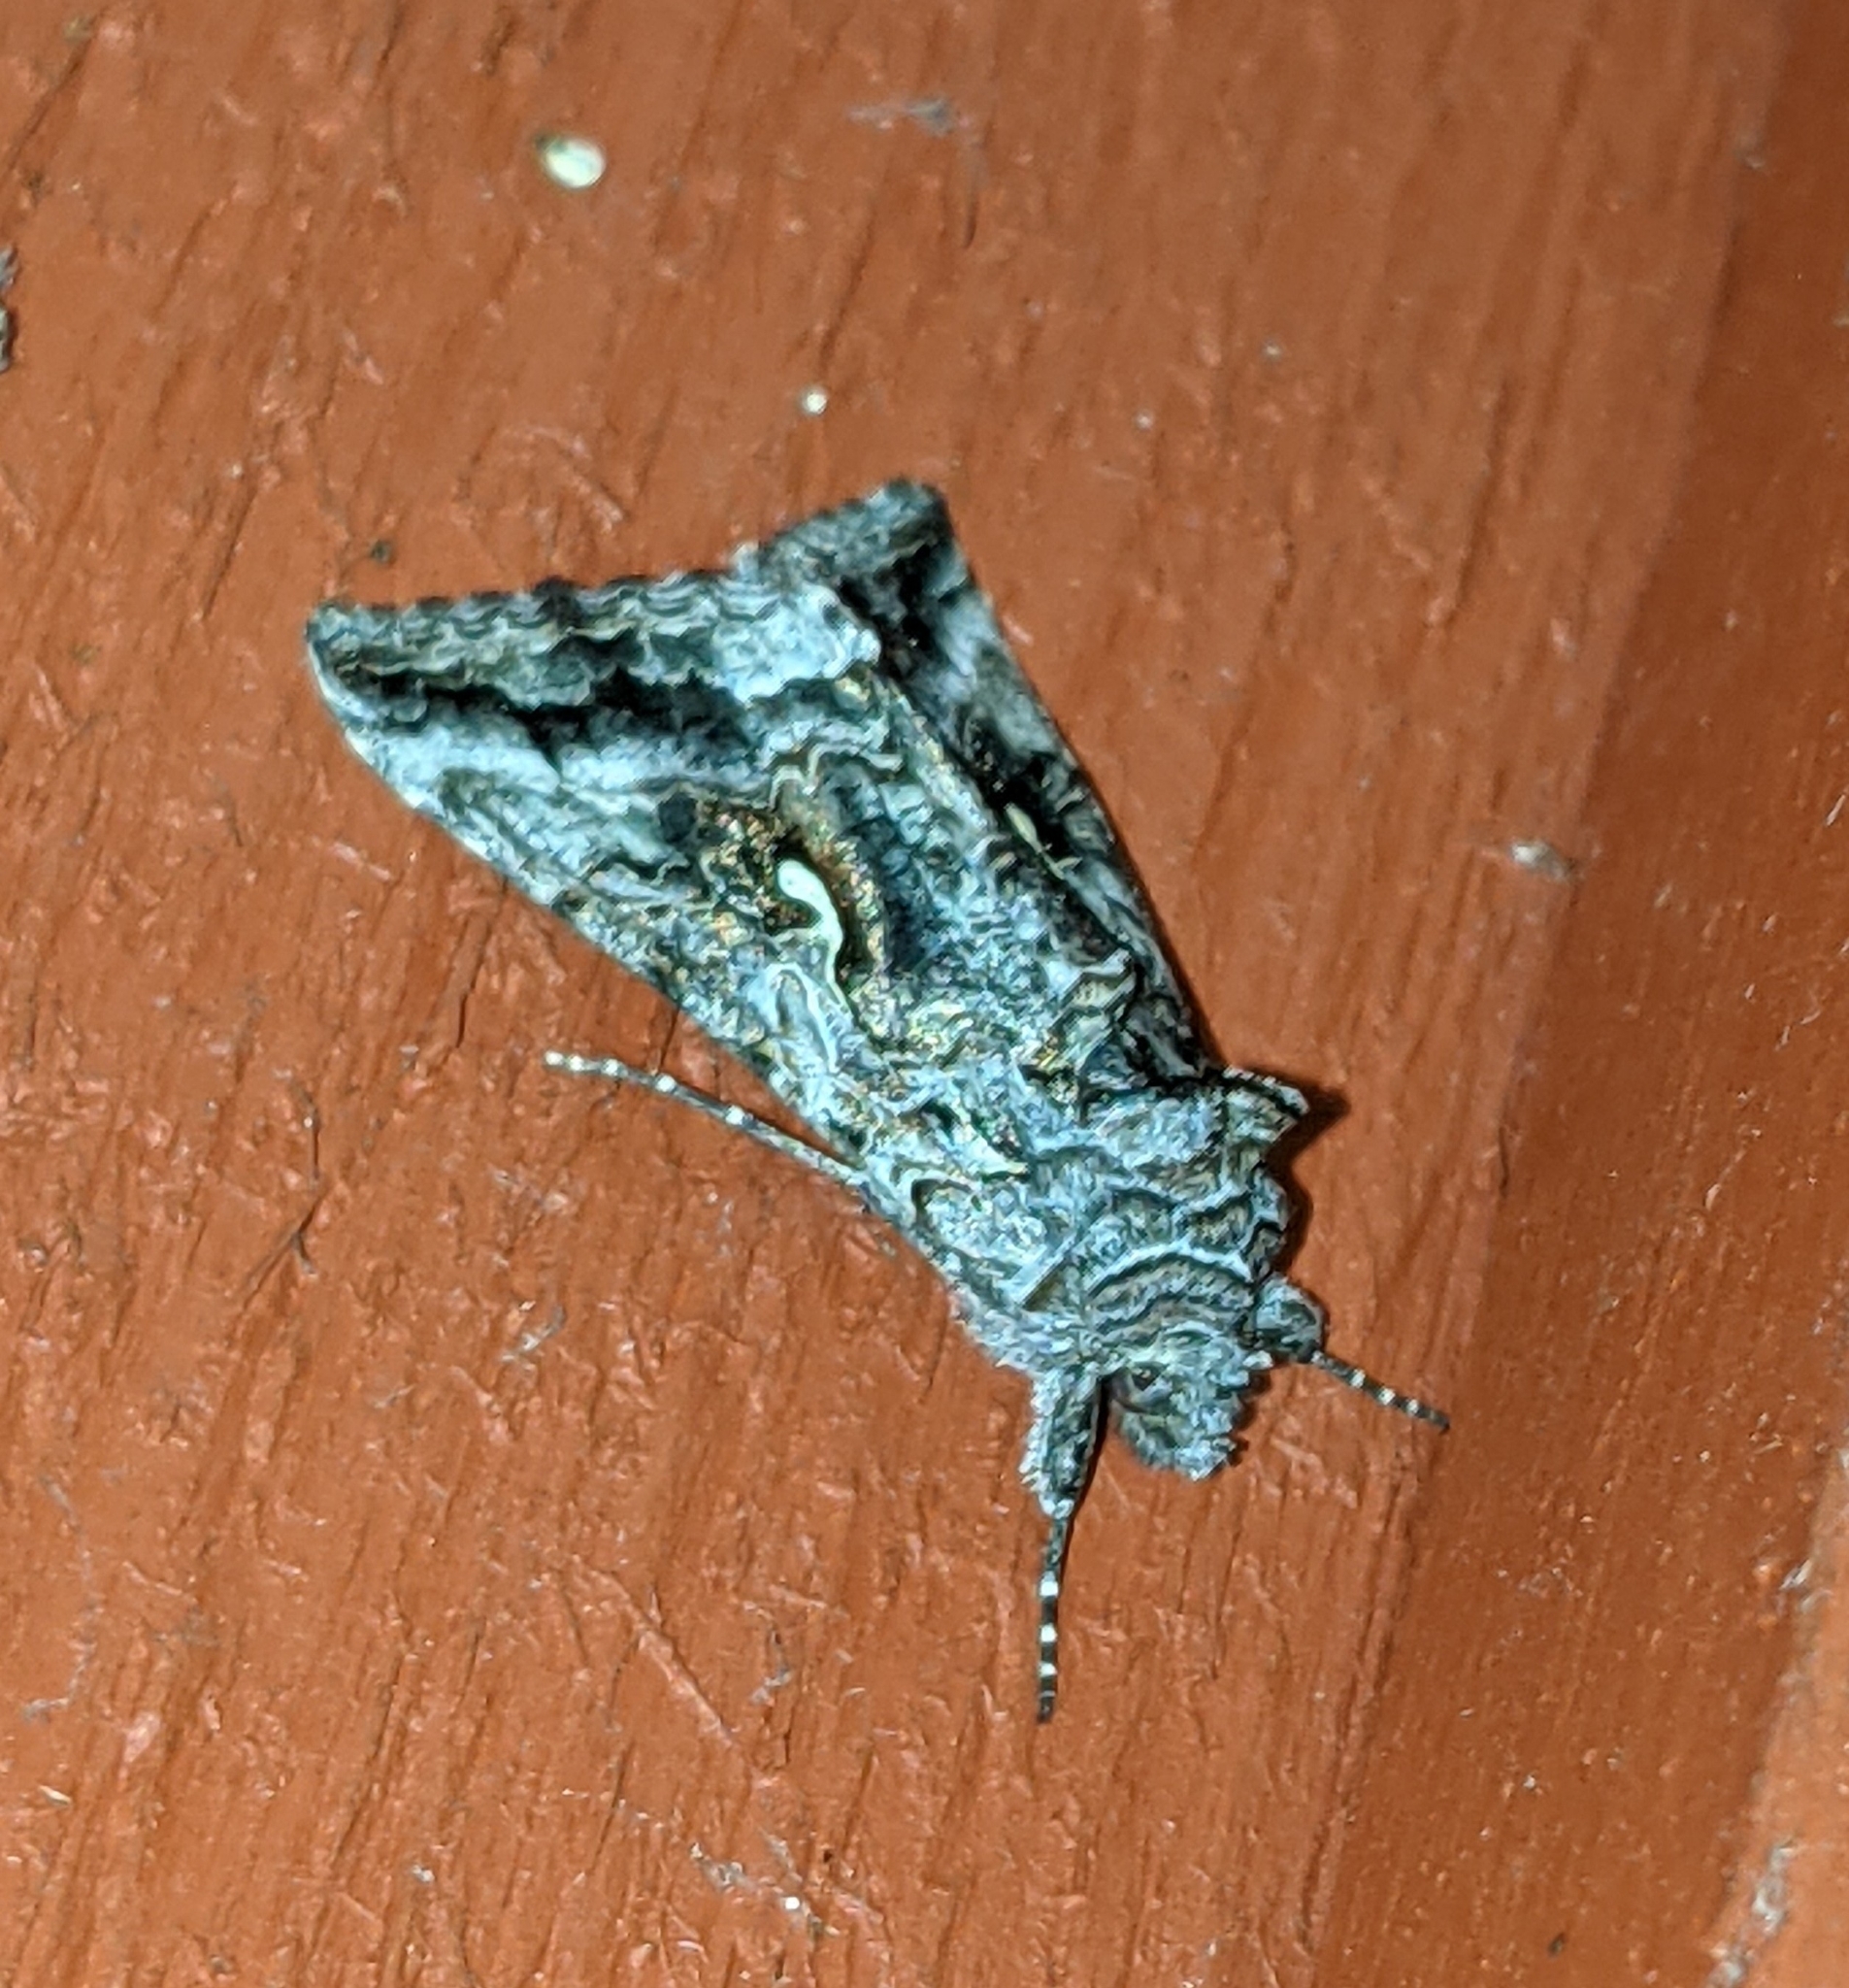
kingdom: Animalia
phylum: Arthropoda
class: Insecta
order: Lepidoptera
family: Noctuidae
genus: Autographa
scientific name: Autographa californica
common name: Alfalfa looper
